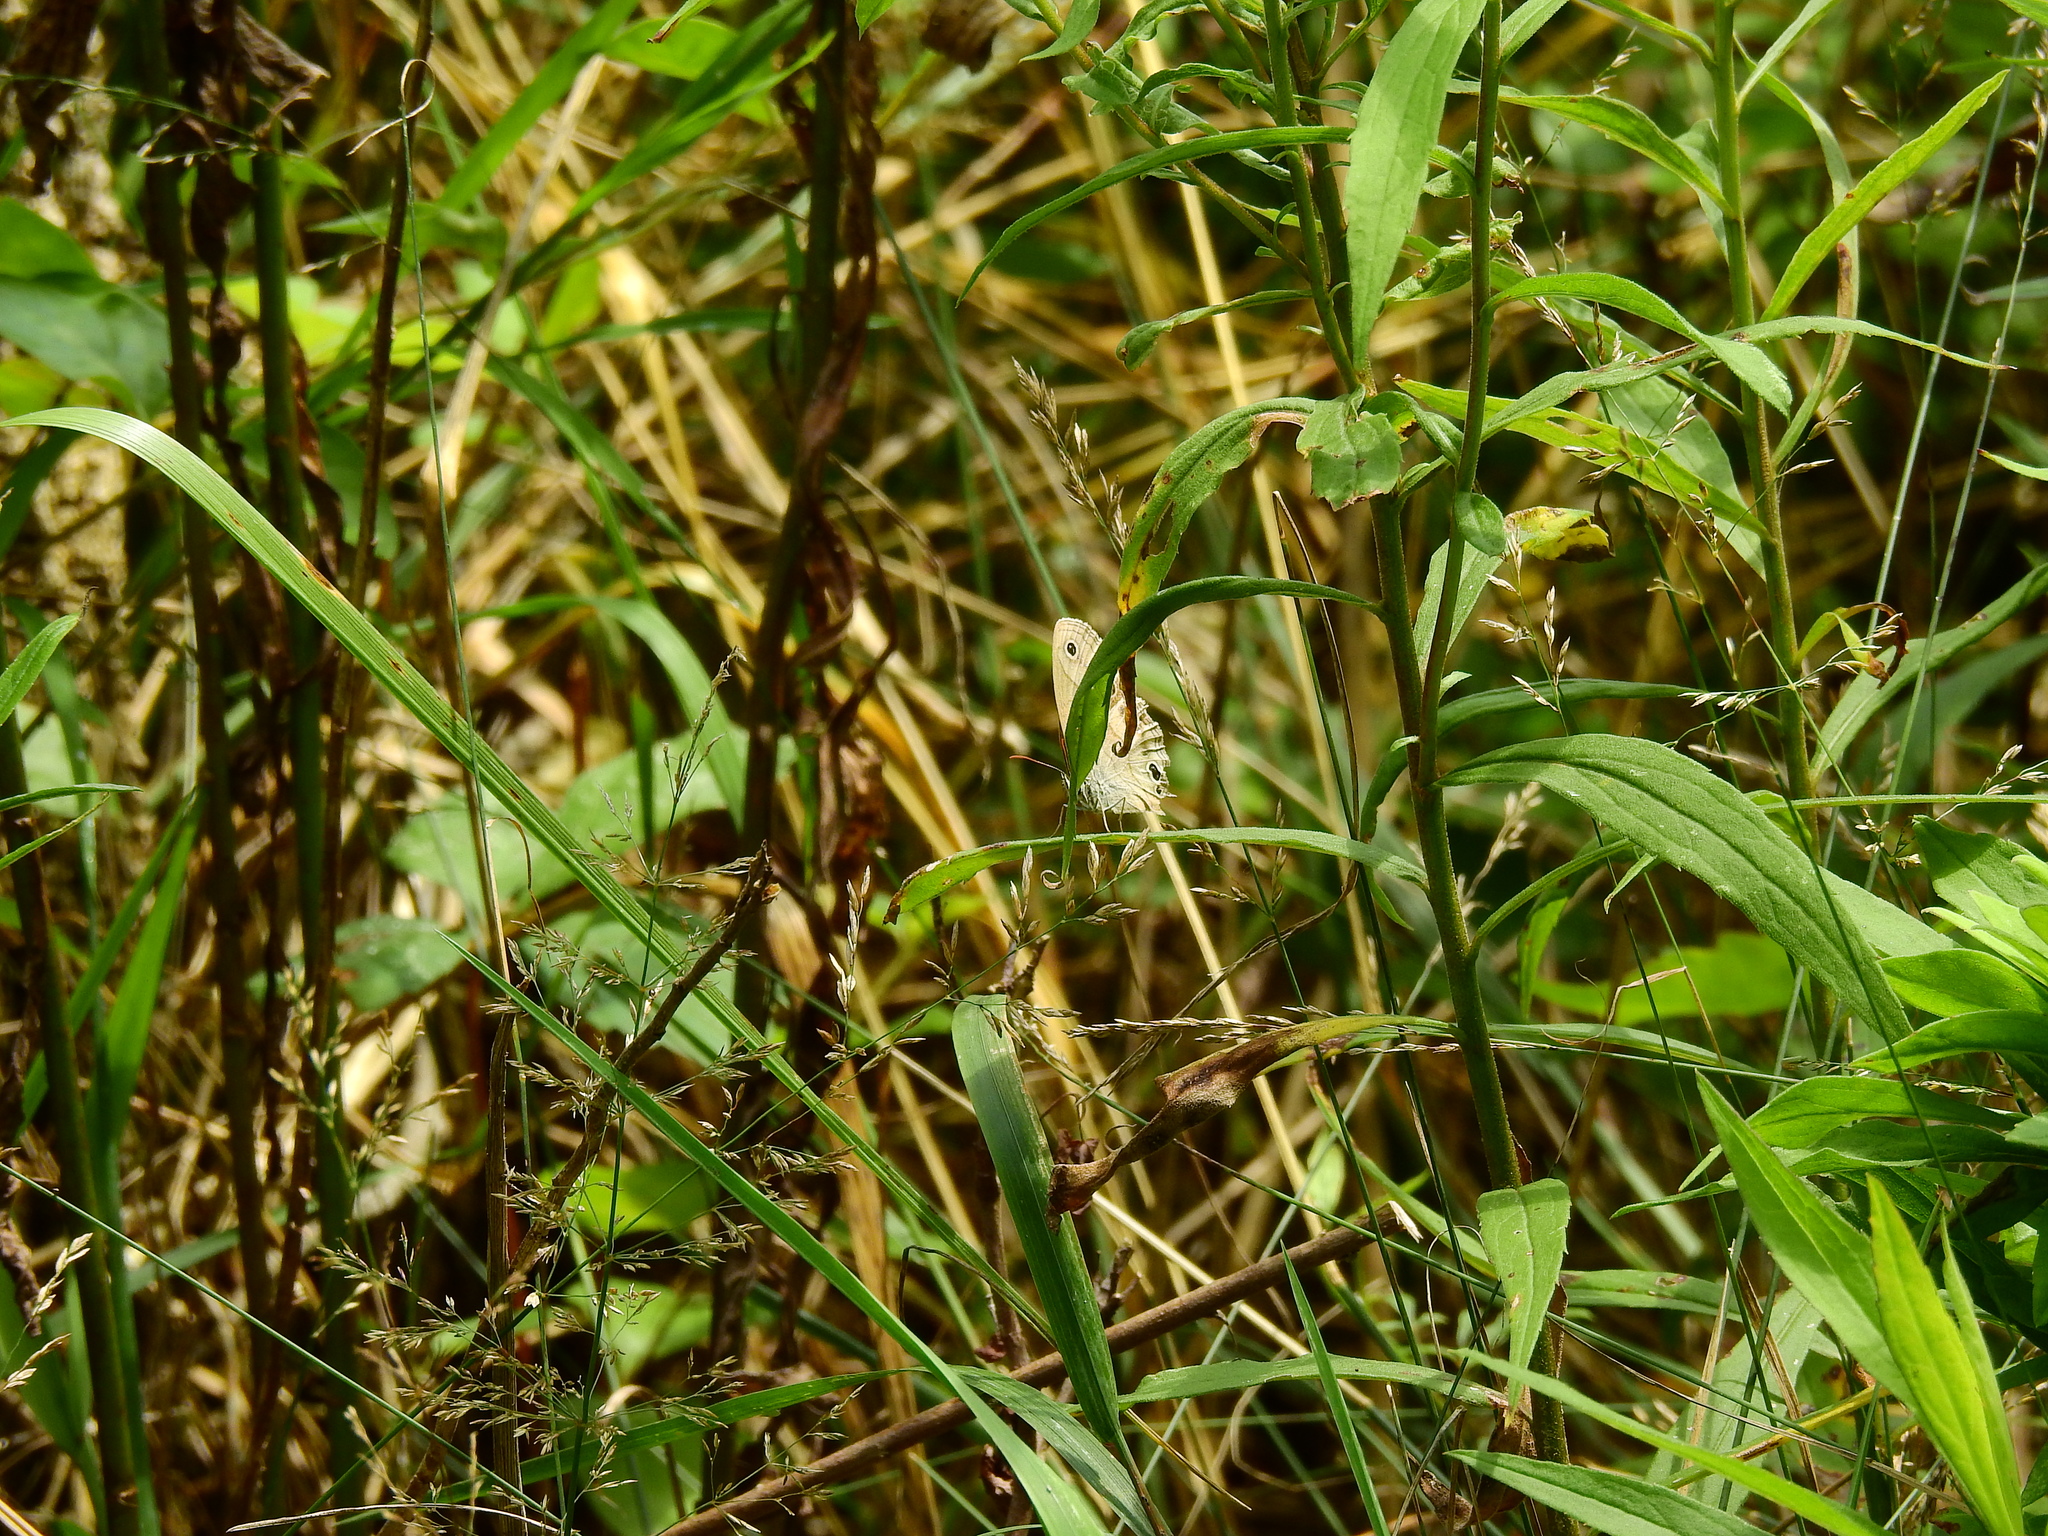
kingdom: Animalia
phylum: Arthropoda
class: Insecta
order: Lepidoptera
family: Nymphalidae
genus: Euptychia
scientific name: Euptychia cymela
